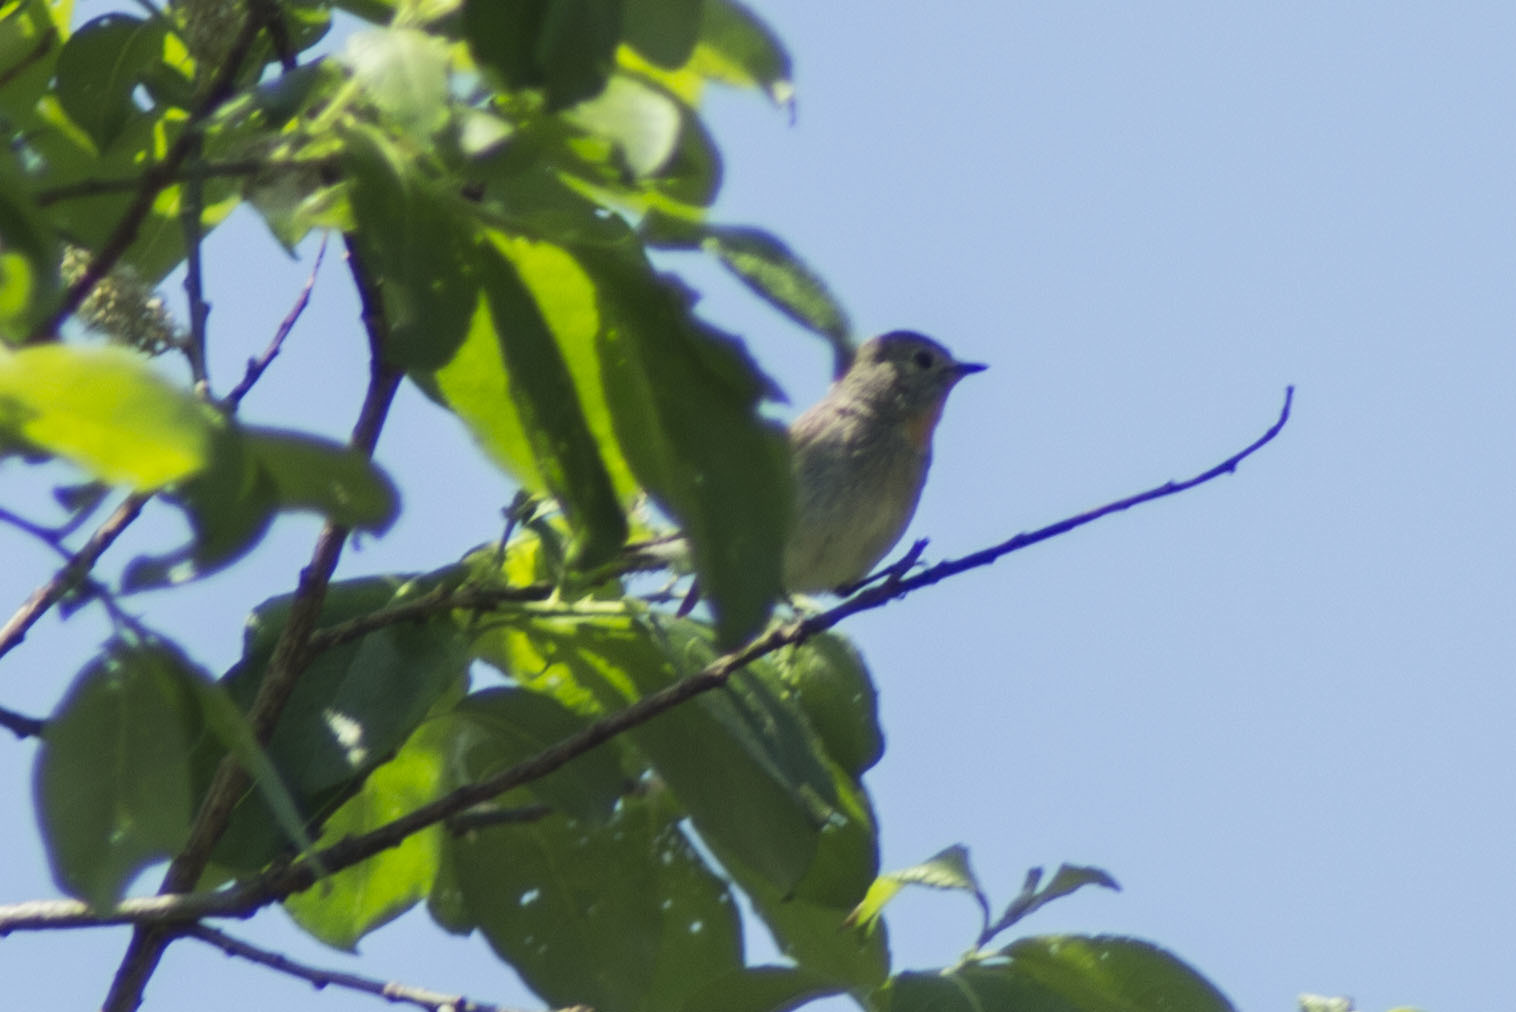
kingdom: Animalia
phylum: Chordata
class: Aves
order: Passeriformes
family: Muscicapidae
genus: Ficedula
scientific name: Ficedula albicilla
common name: Taiga flycatcher
